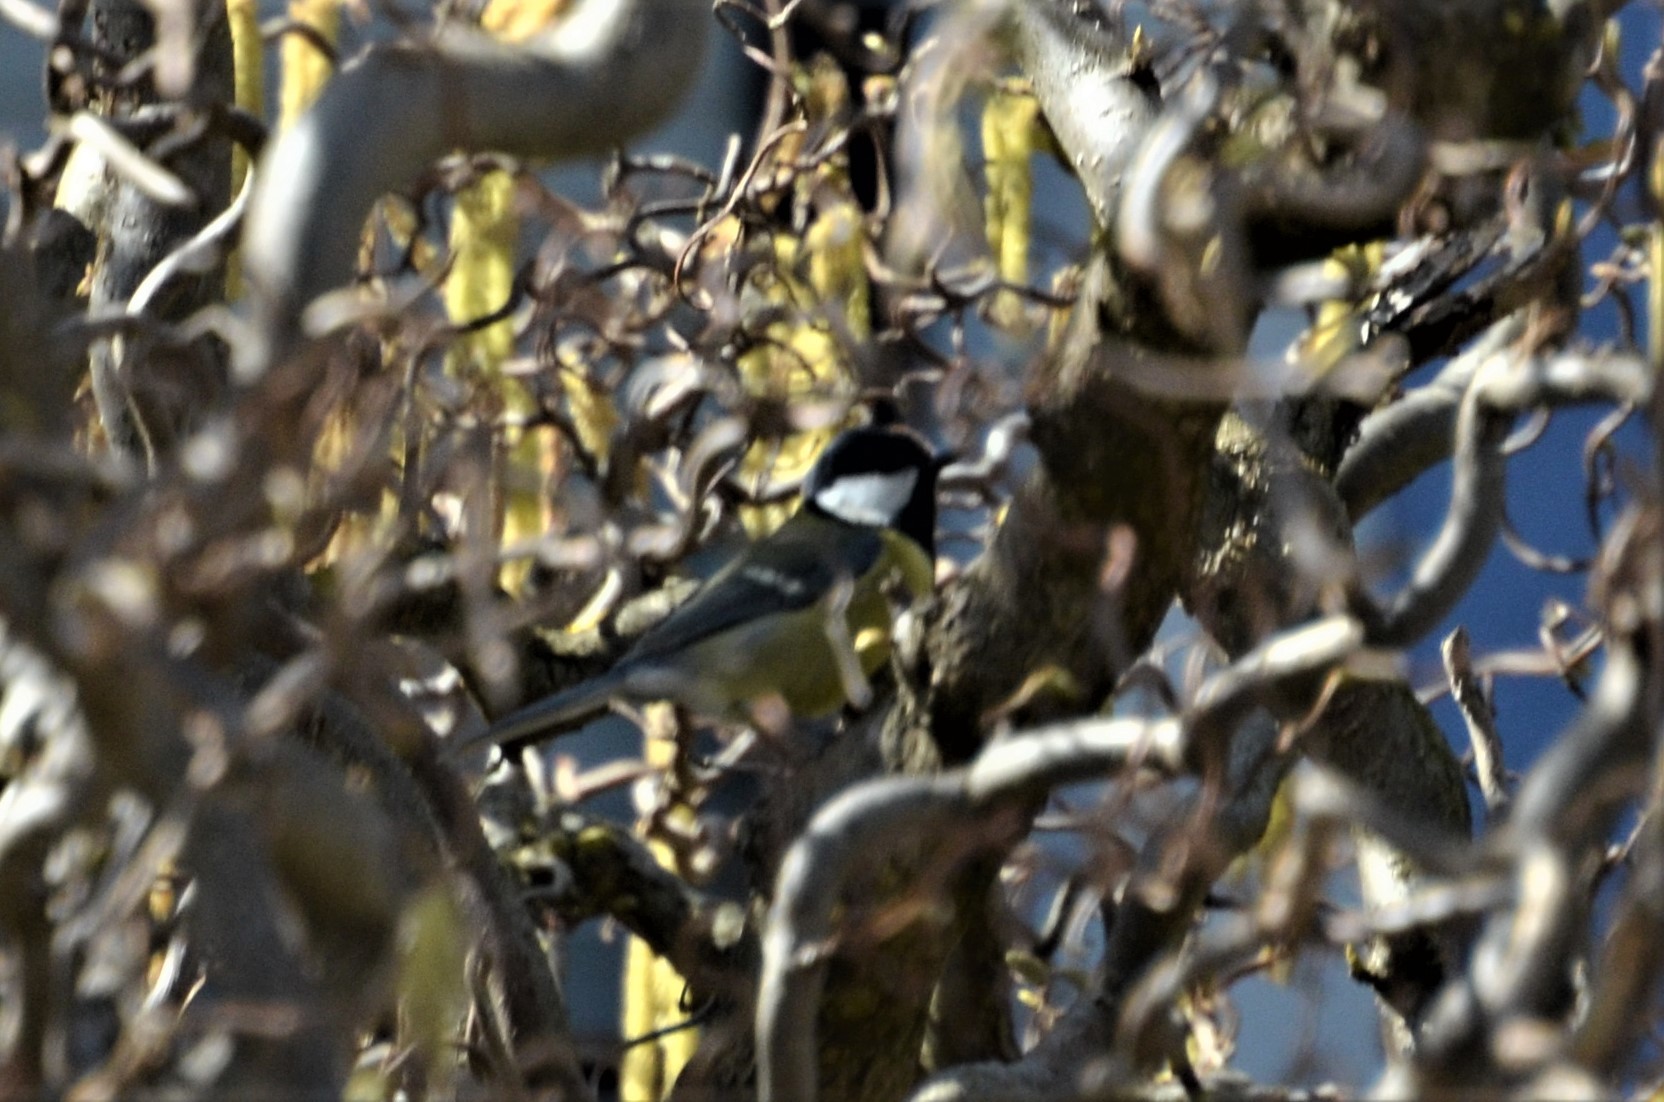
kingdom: Animalia
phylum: Chordata
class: Aves
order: Passeriformes
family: Paridae
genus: Parus
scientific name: Parus major
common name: Great tit
